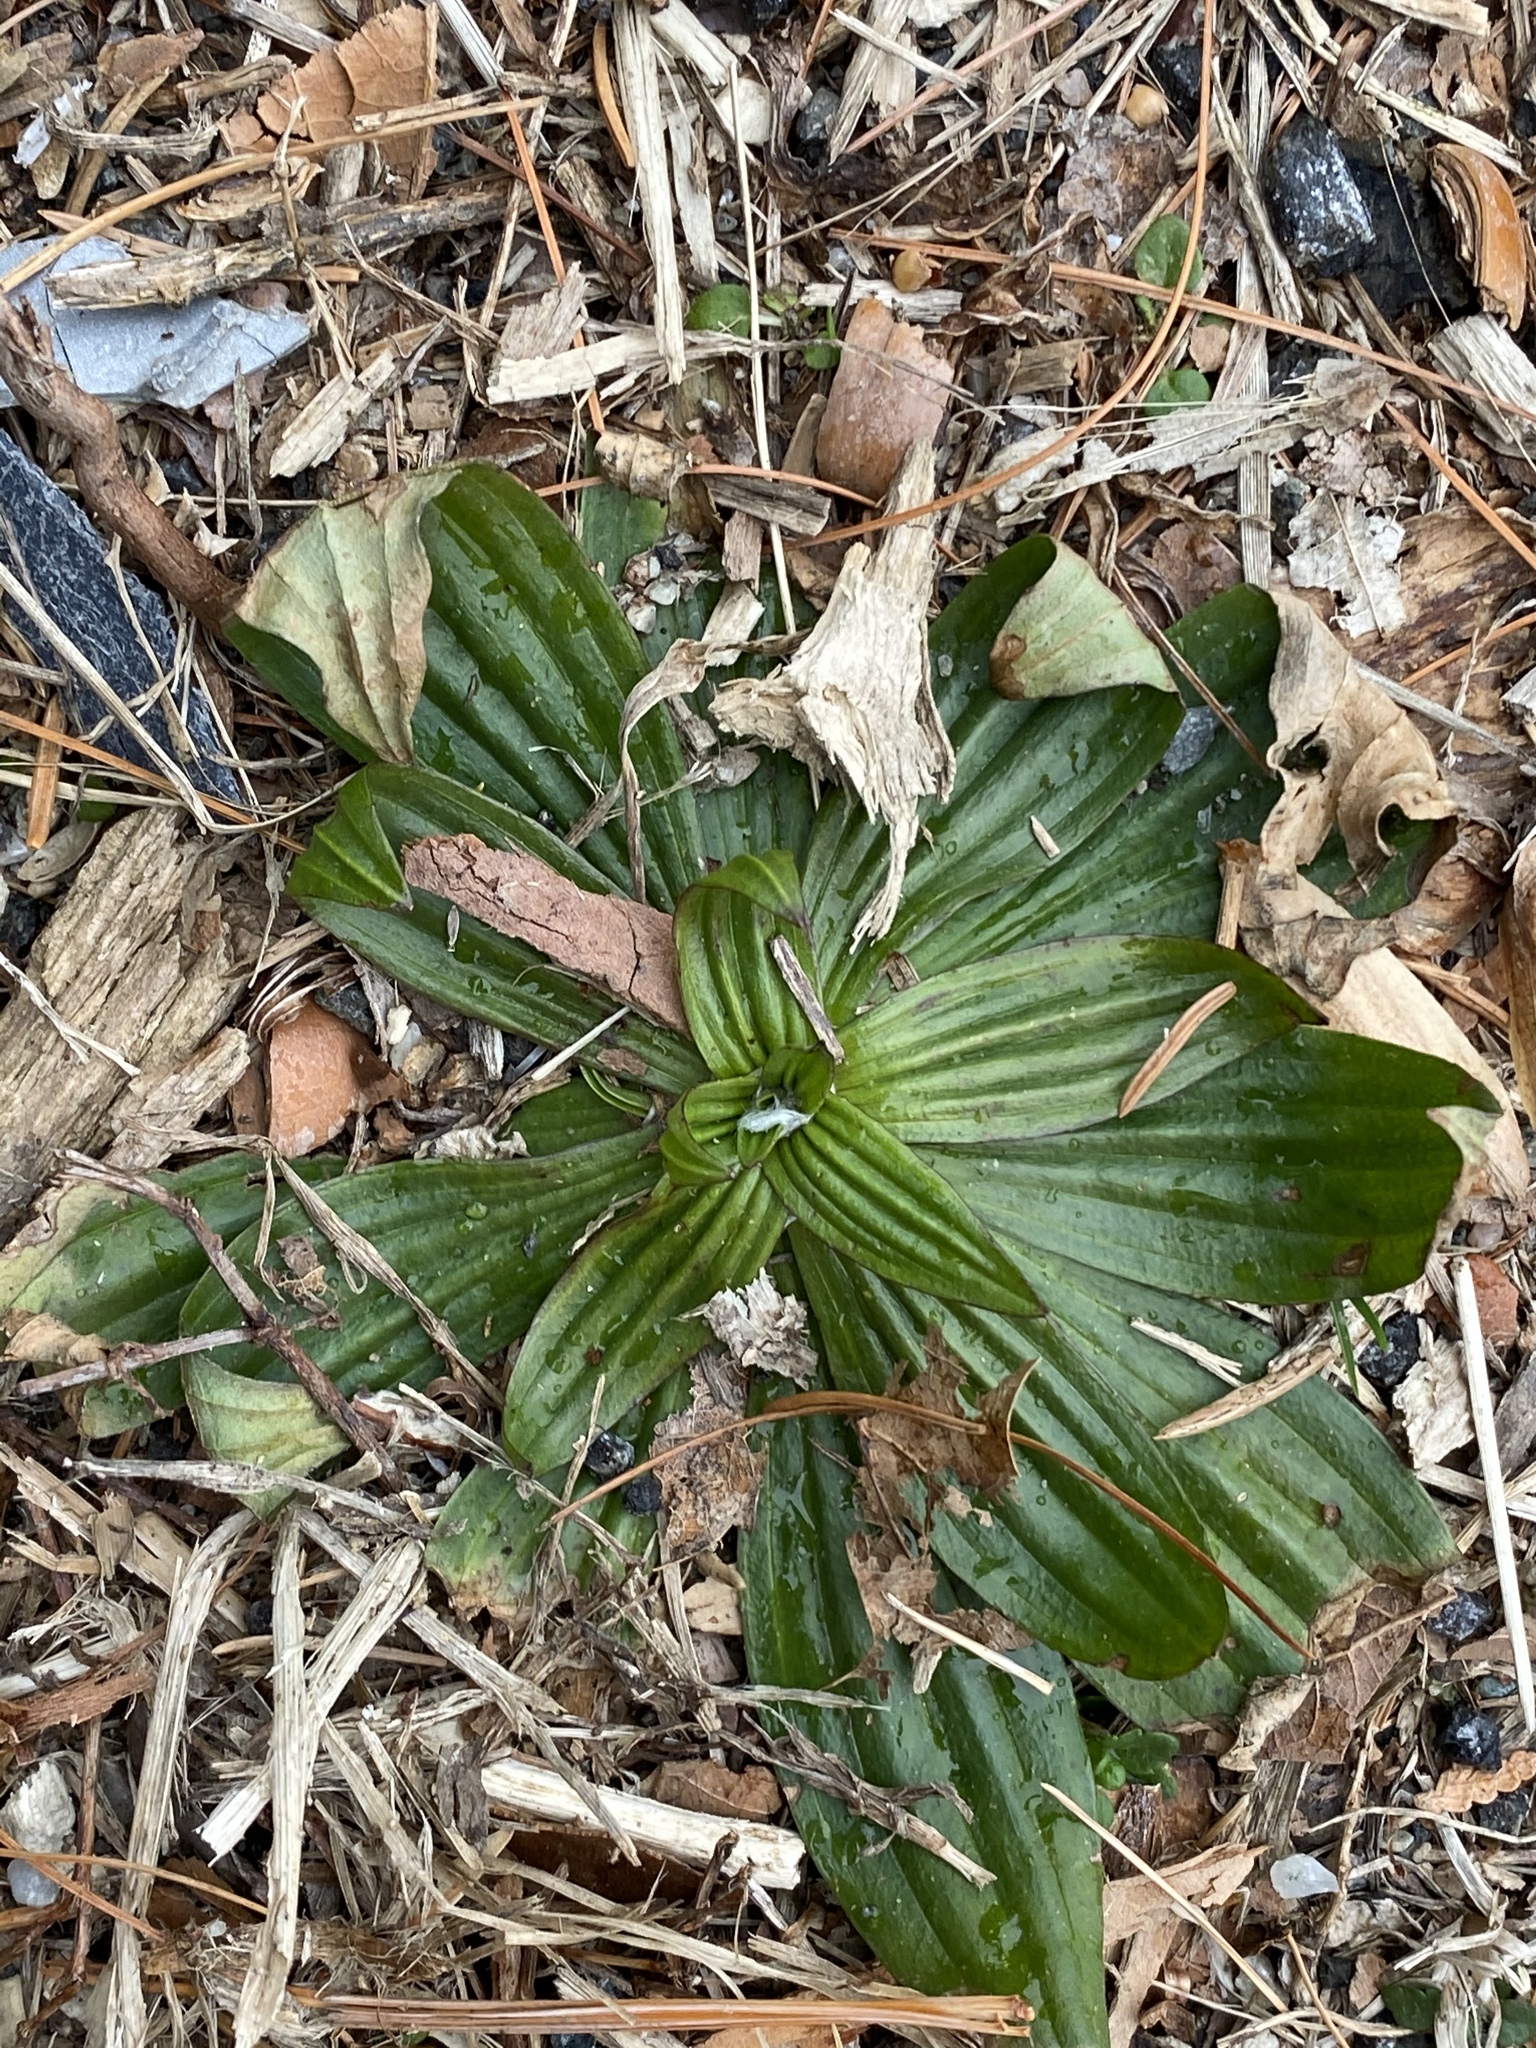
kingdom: Plantae
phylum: Tracheophyta
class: Magnoliopsida
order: Lamiales
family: Plantaginaceae
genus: Plantago
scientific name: Plantago lanceolata
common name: Ribwort plantain
